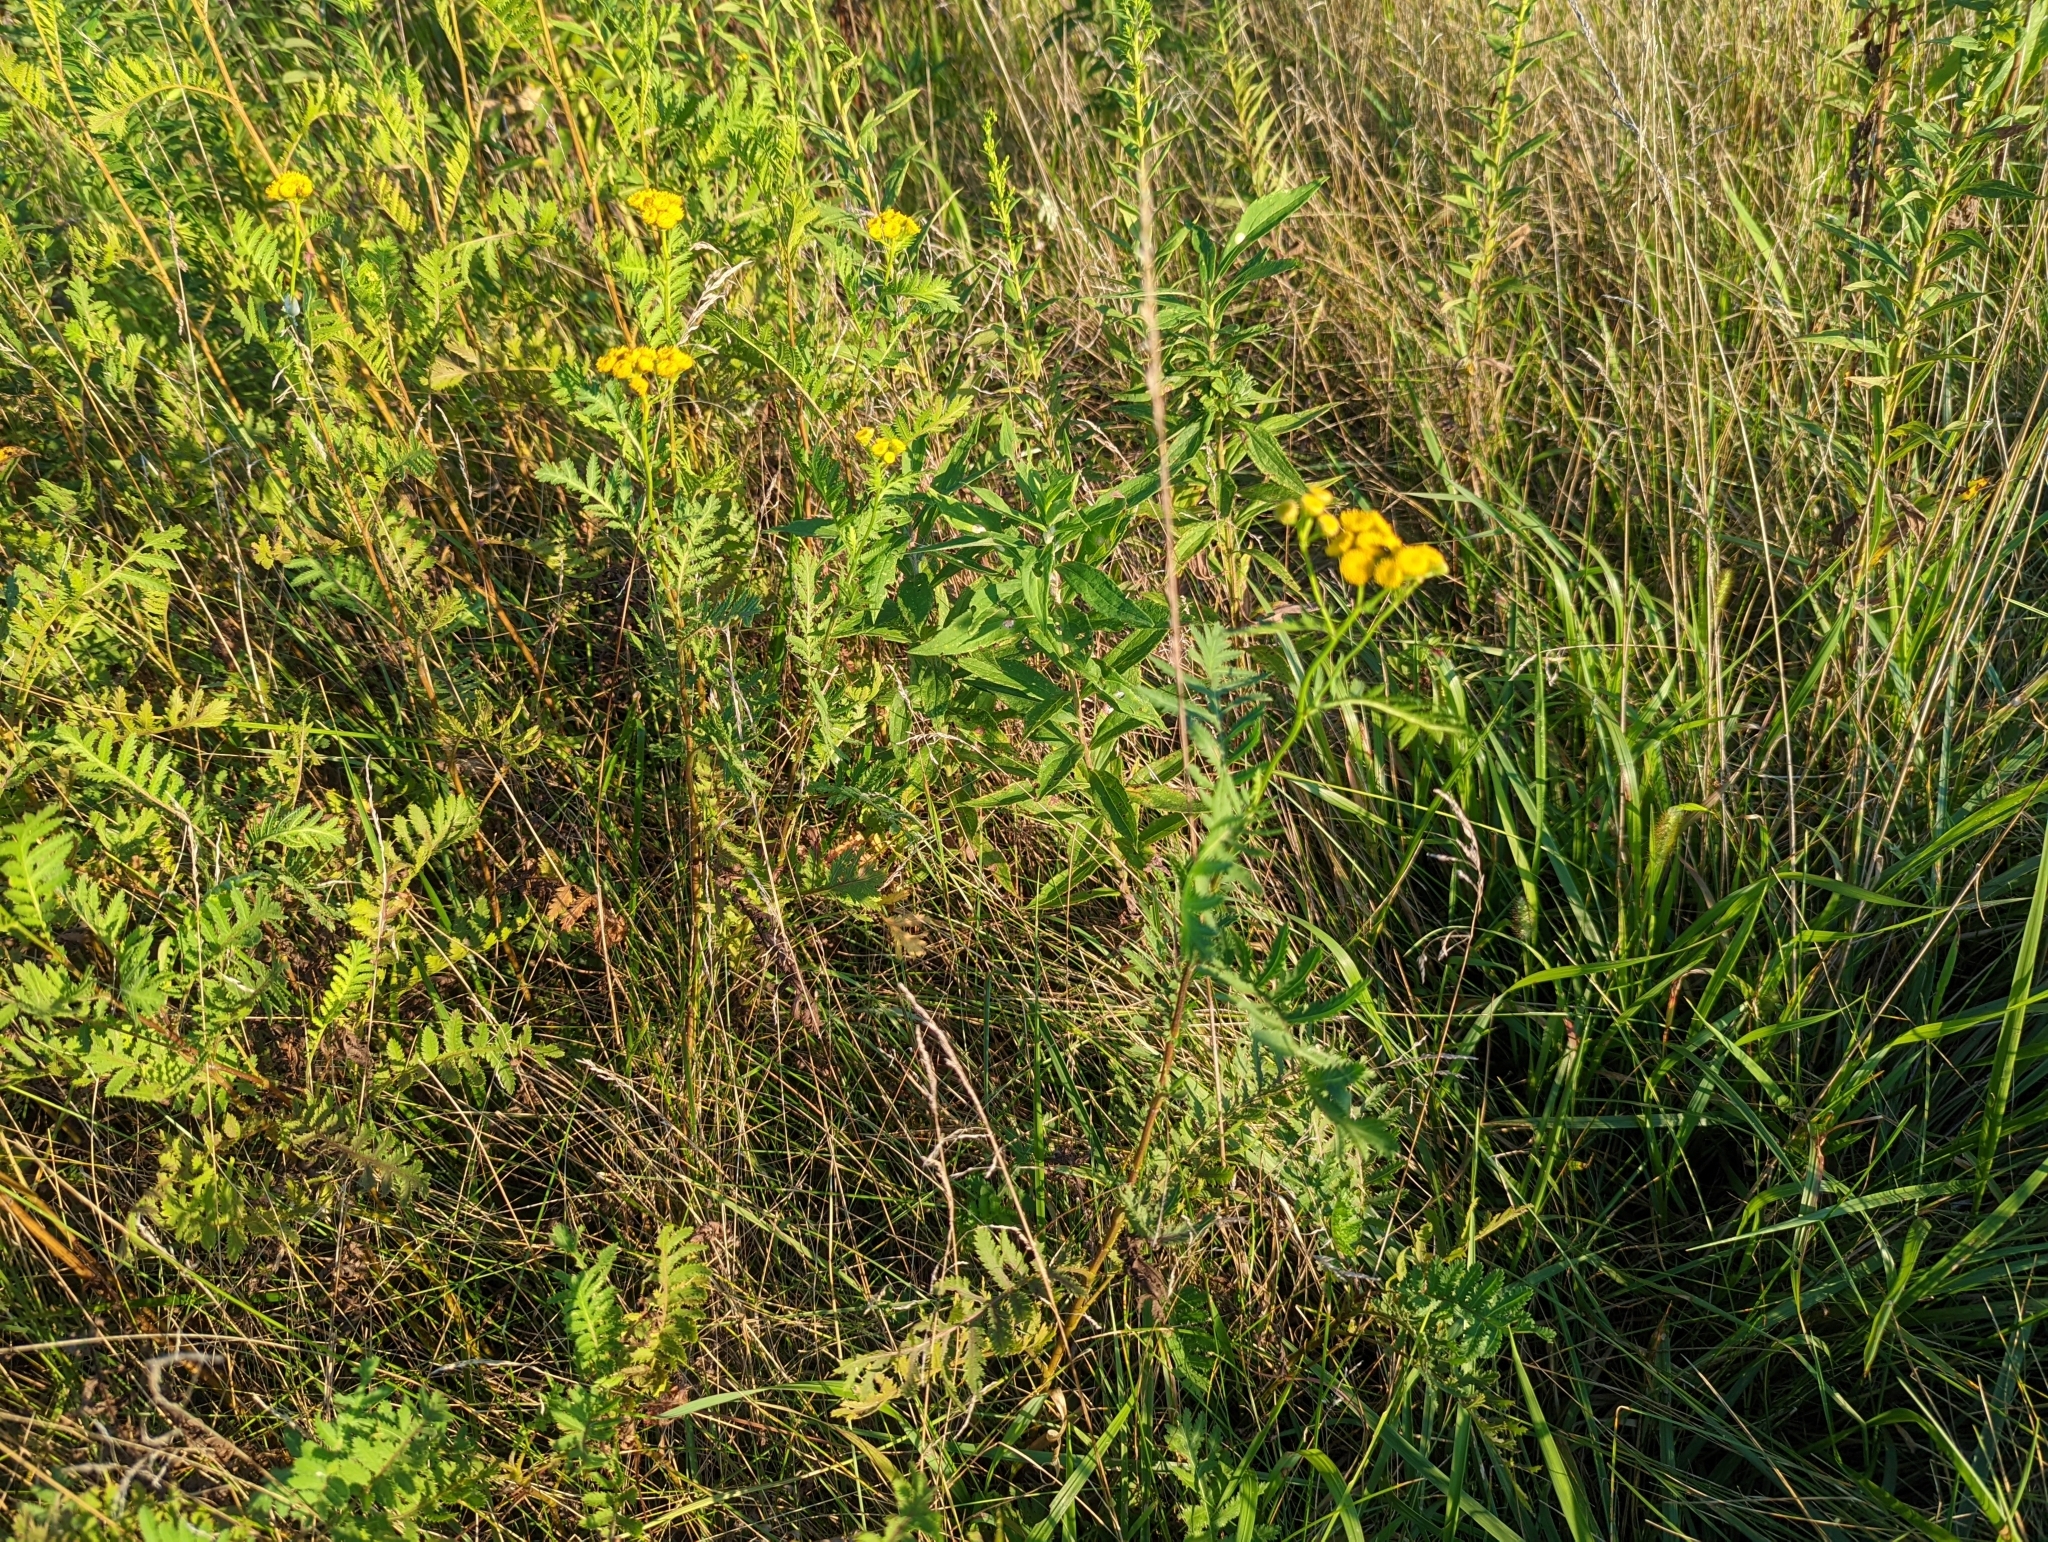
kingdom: Plantae
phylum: Tracheophyta
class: Magnoliopsida
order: Asterales
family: Asteraceae
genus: Tanacetum
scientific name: Tanacetum vulgare
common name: Common tansy
